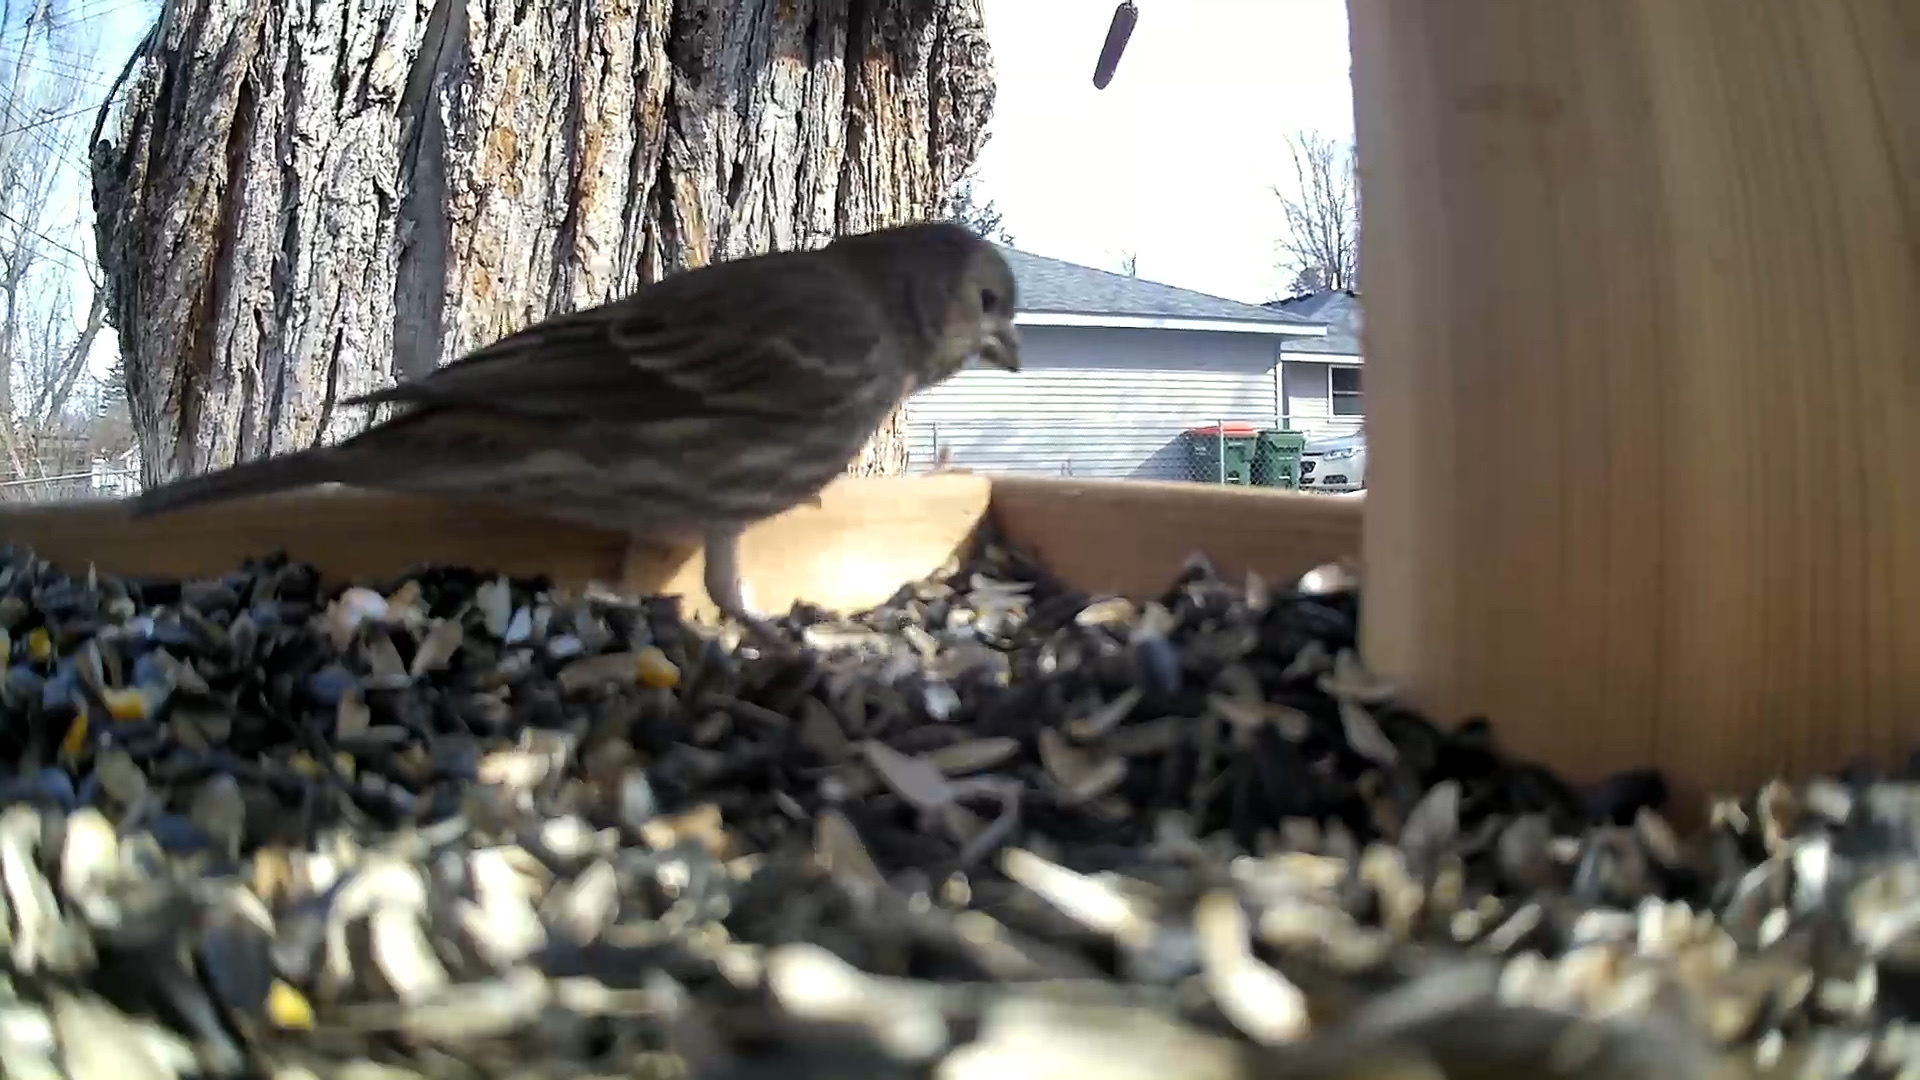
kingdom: Animalia
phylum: Chordata
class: Aves
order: Passeriformes
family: Fringillidae
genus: Haemorhous
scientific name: Haemorhous mexicanus
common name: House finch
